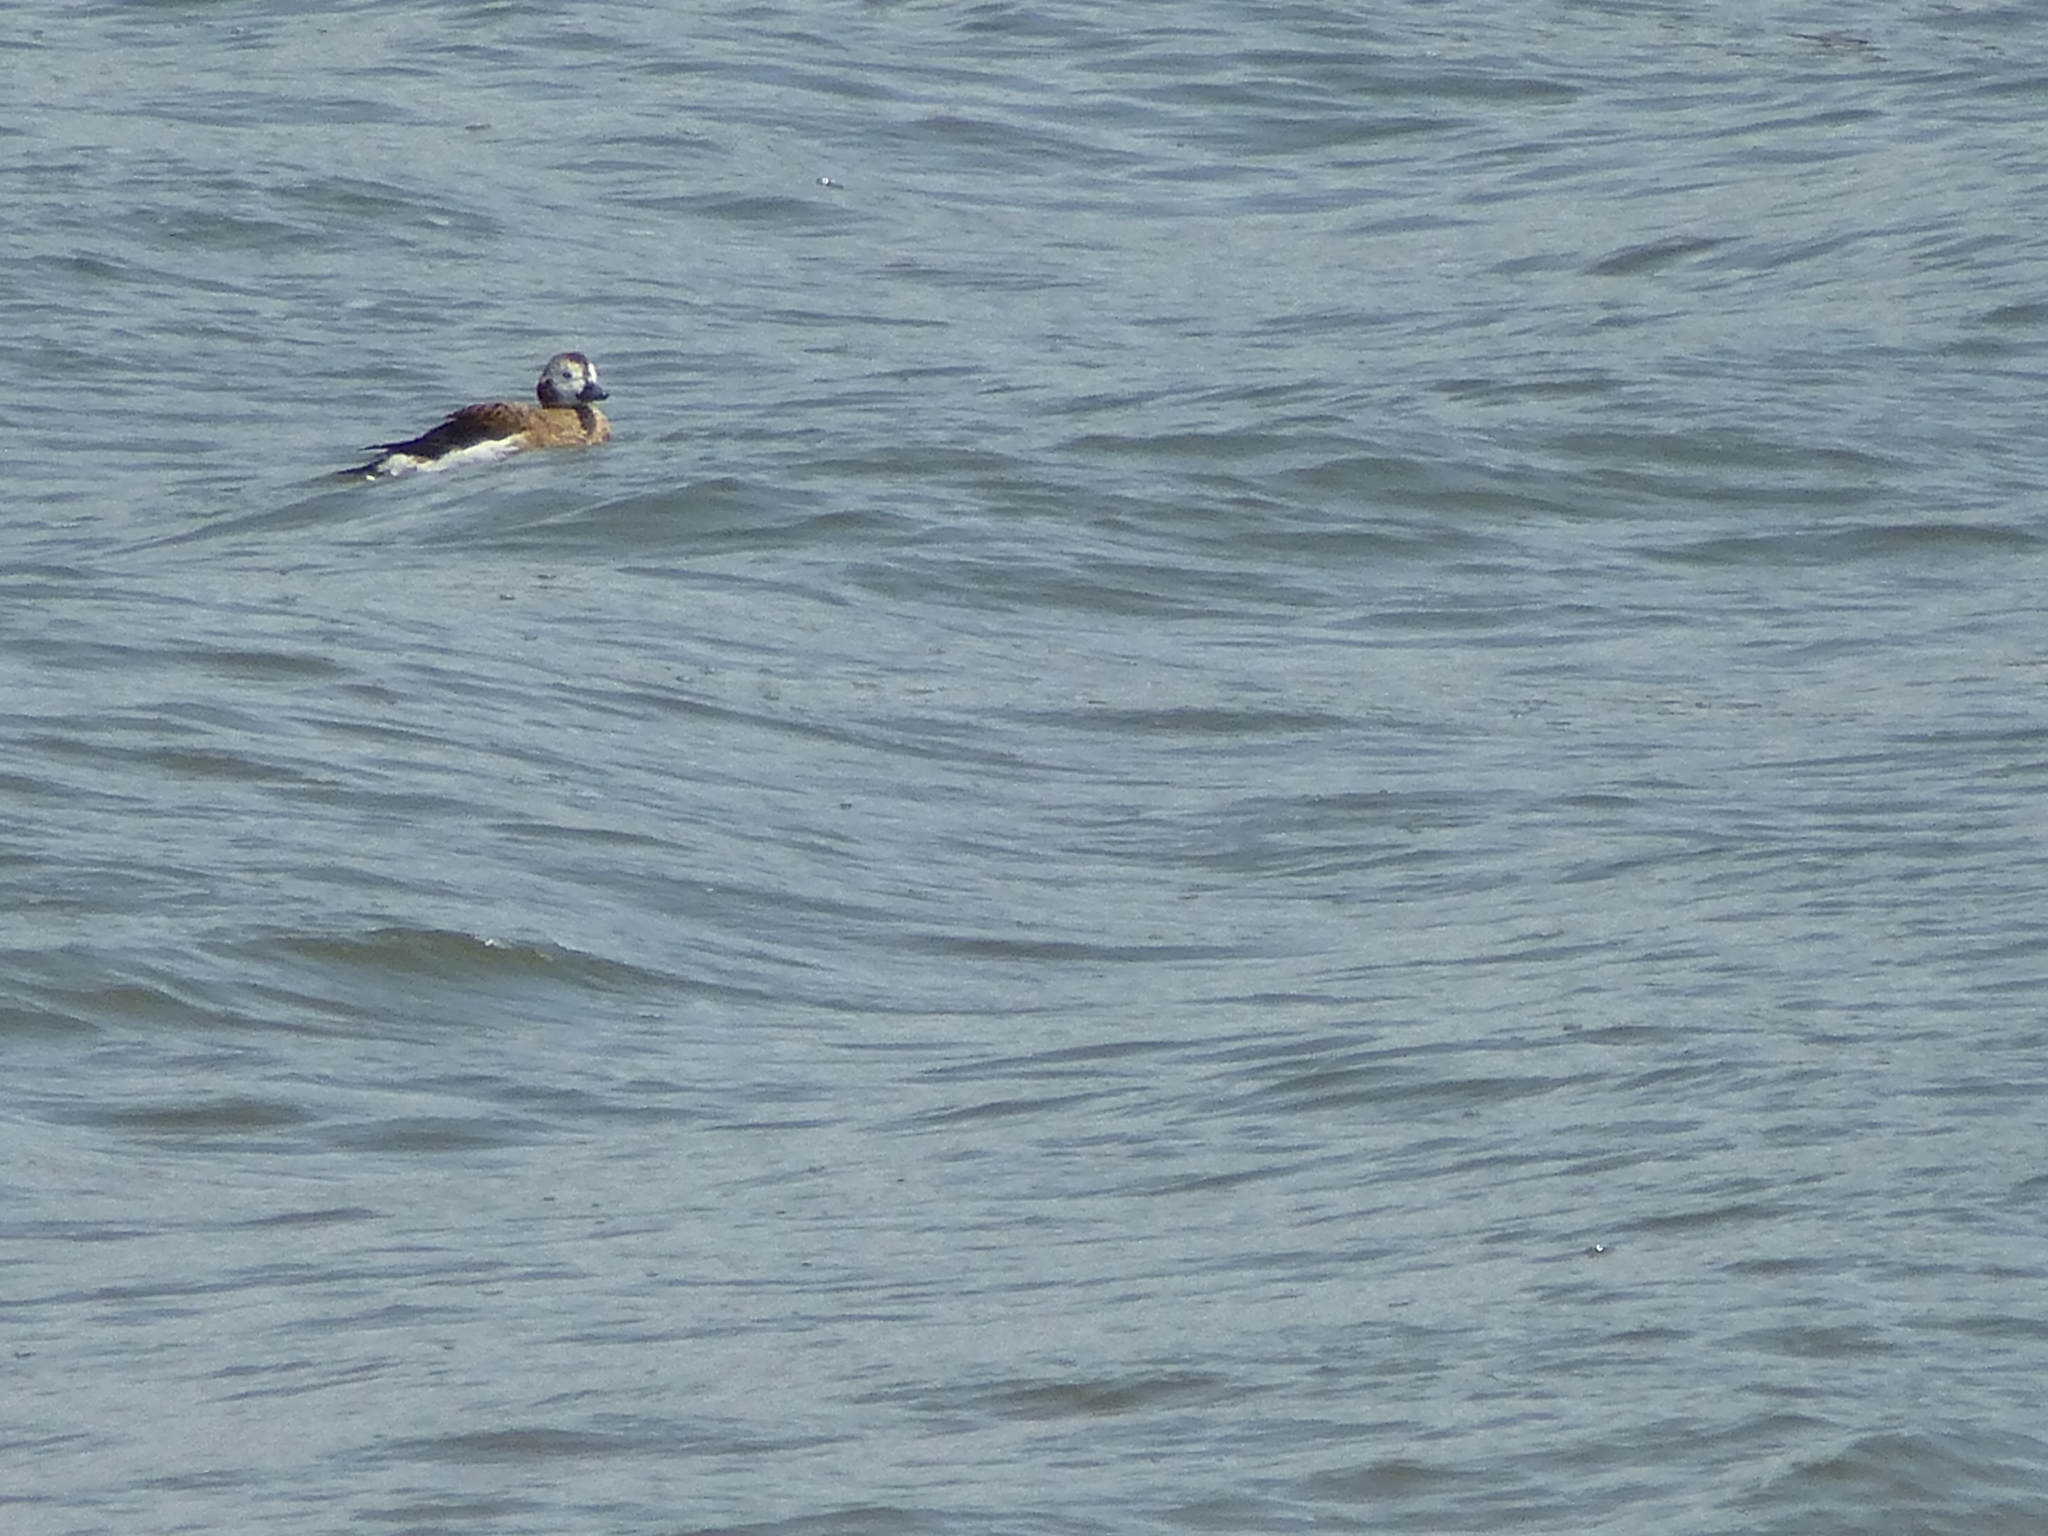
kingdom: Animalia
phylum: Chordata
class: Aves
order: Anseriformes
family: Anatidae
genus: Clangula
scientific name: Clangula hyemalis
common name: Long-tailed duck
